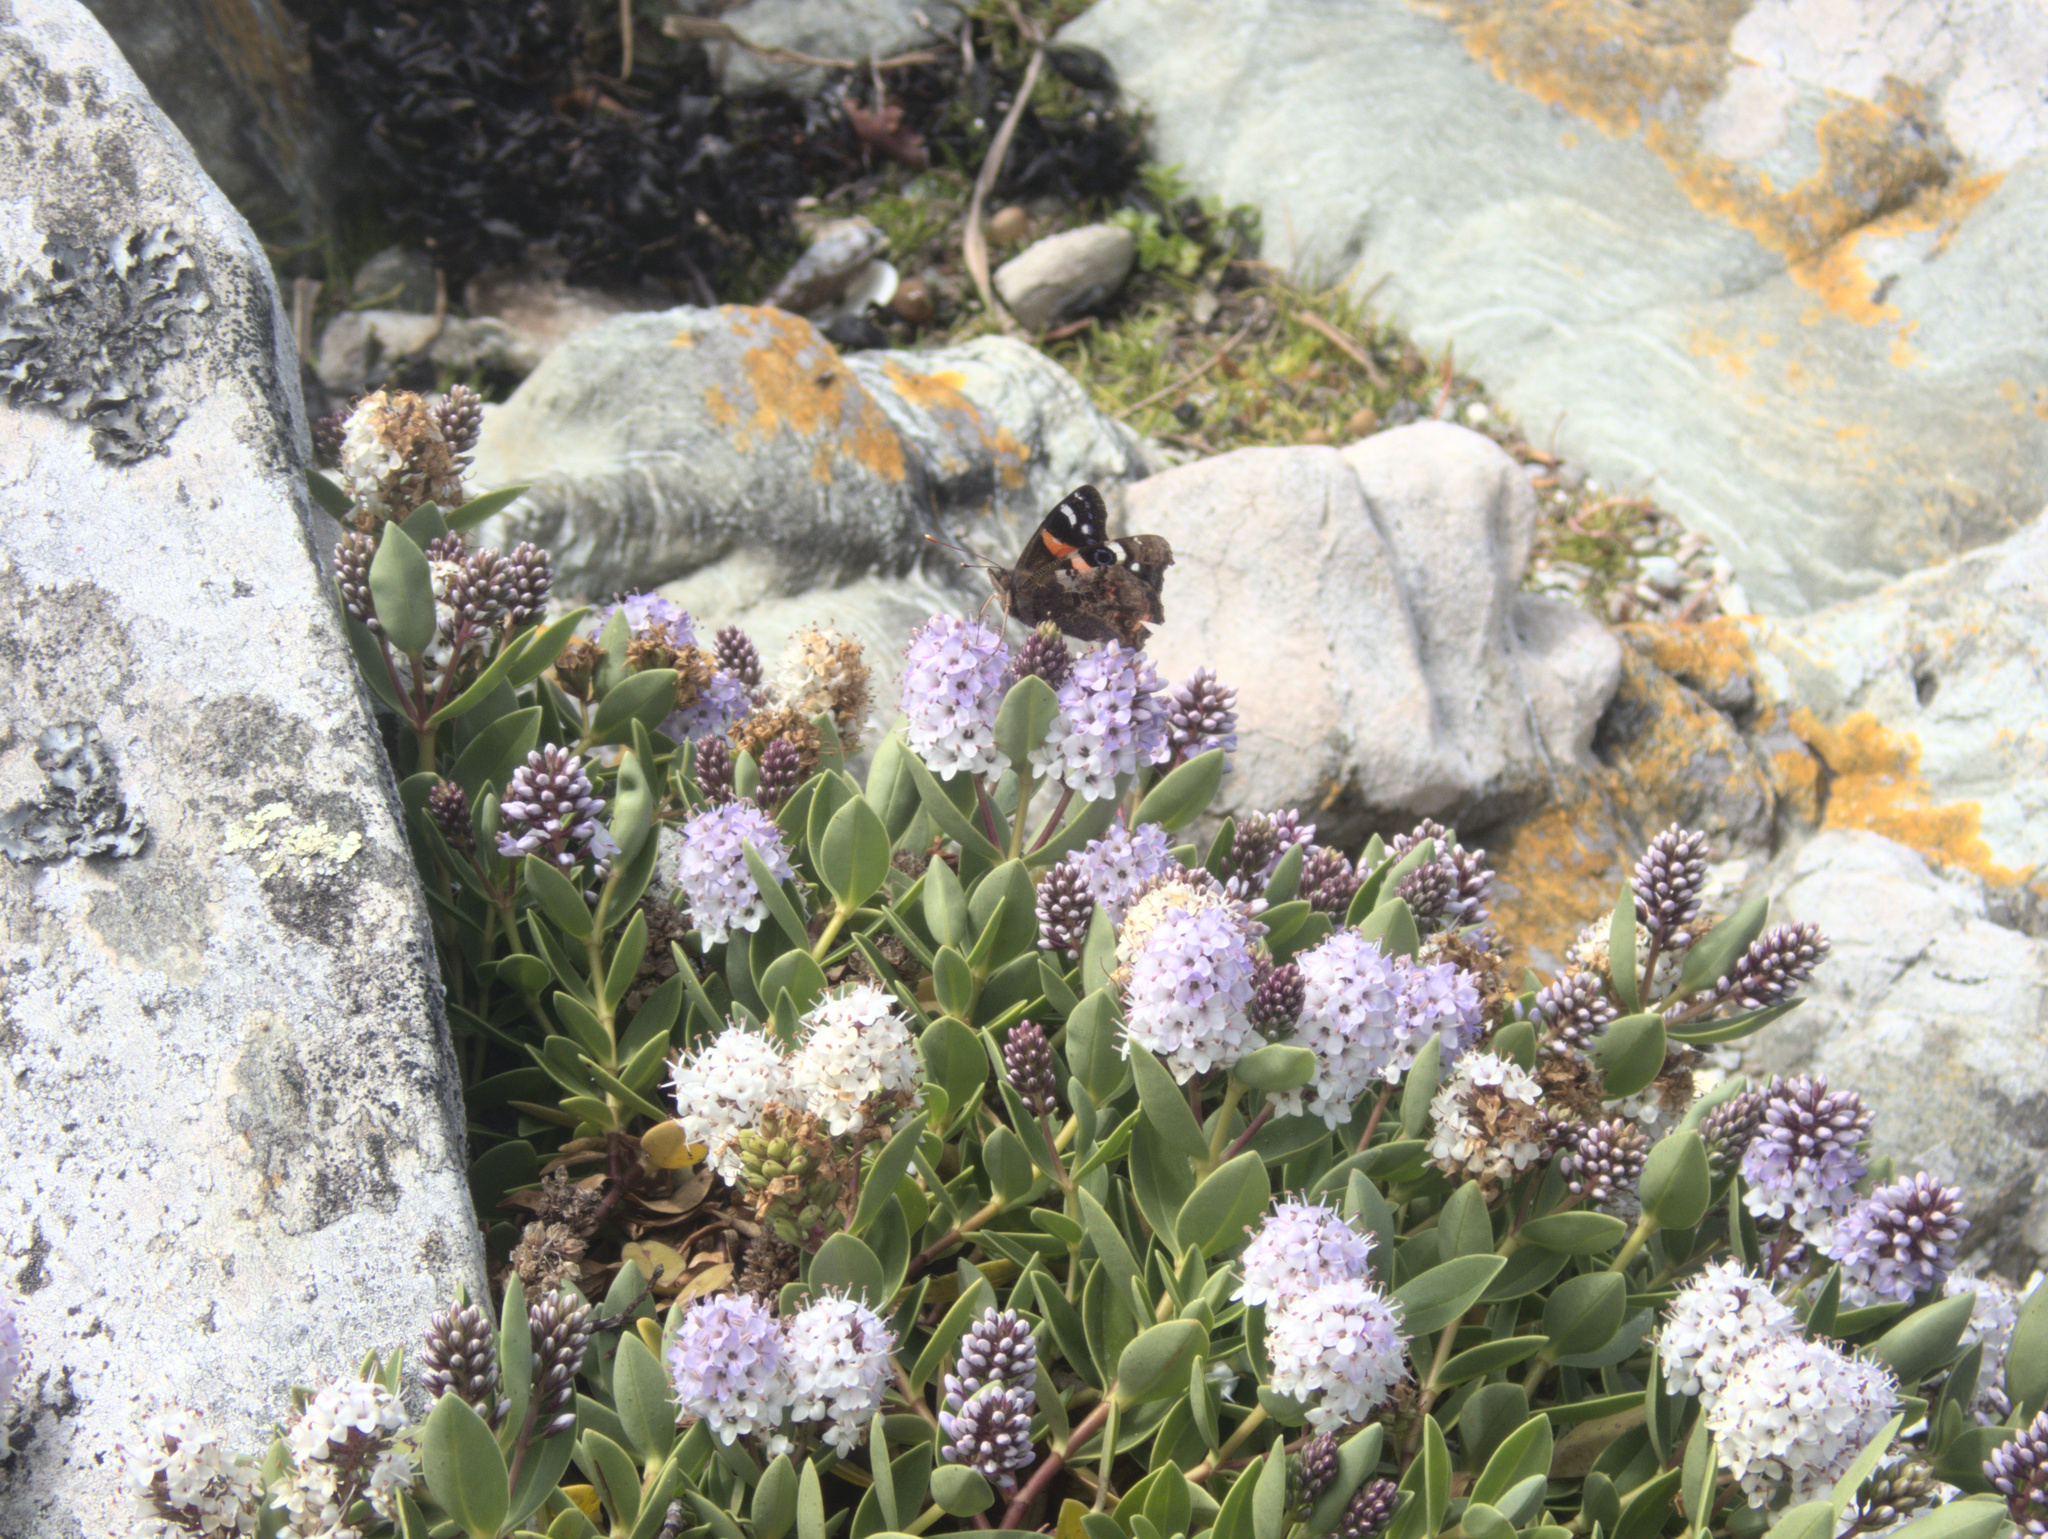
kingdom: Animalia
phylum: Arthropoda
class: Insecta
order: Lepidoptera
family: Nymphalidae
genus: Vanessa
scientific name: Vanessa gonerilla
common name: New zealand red admiral
